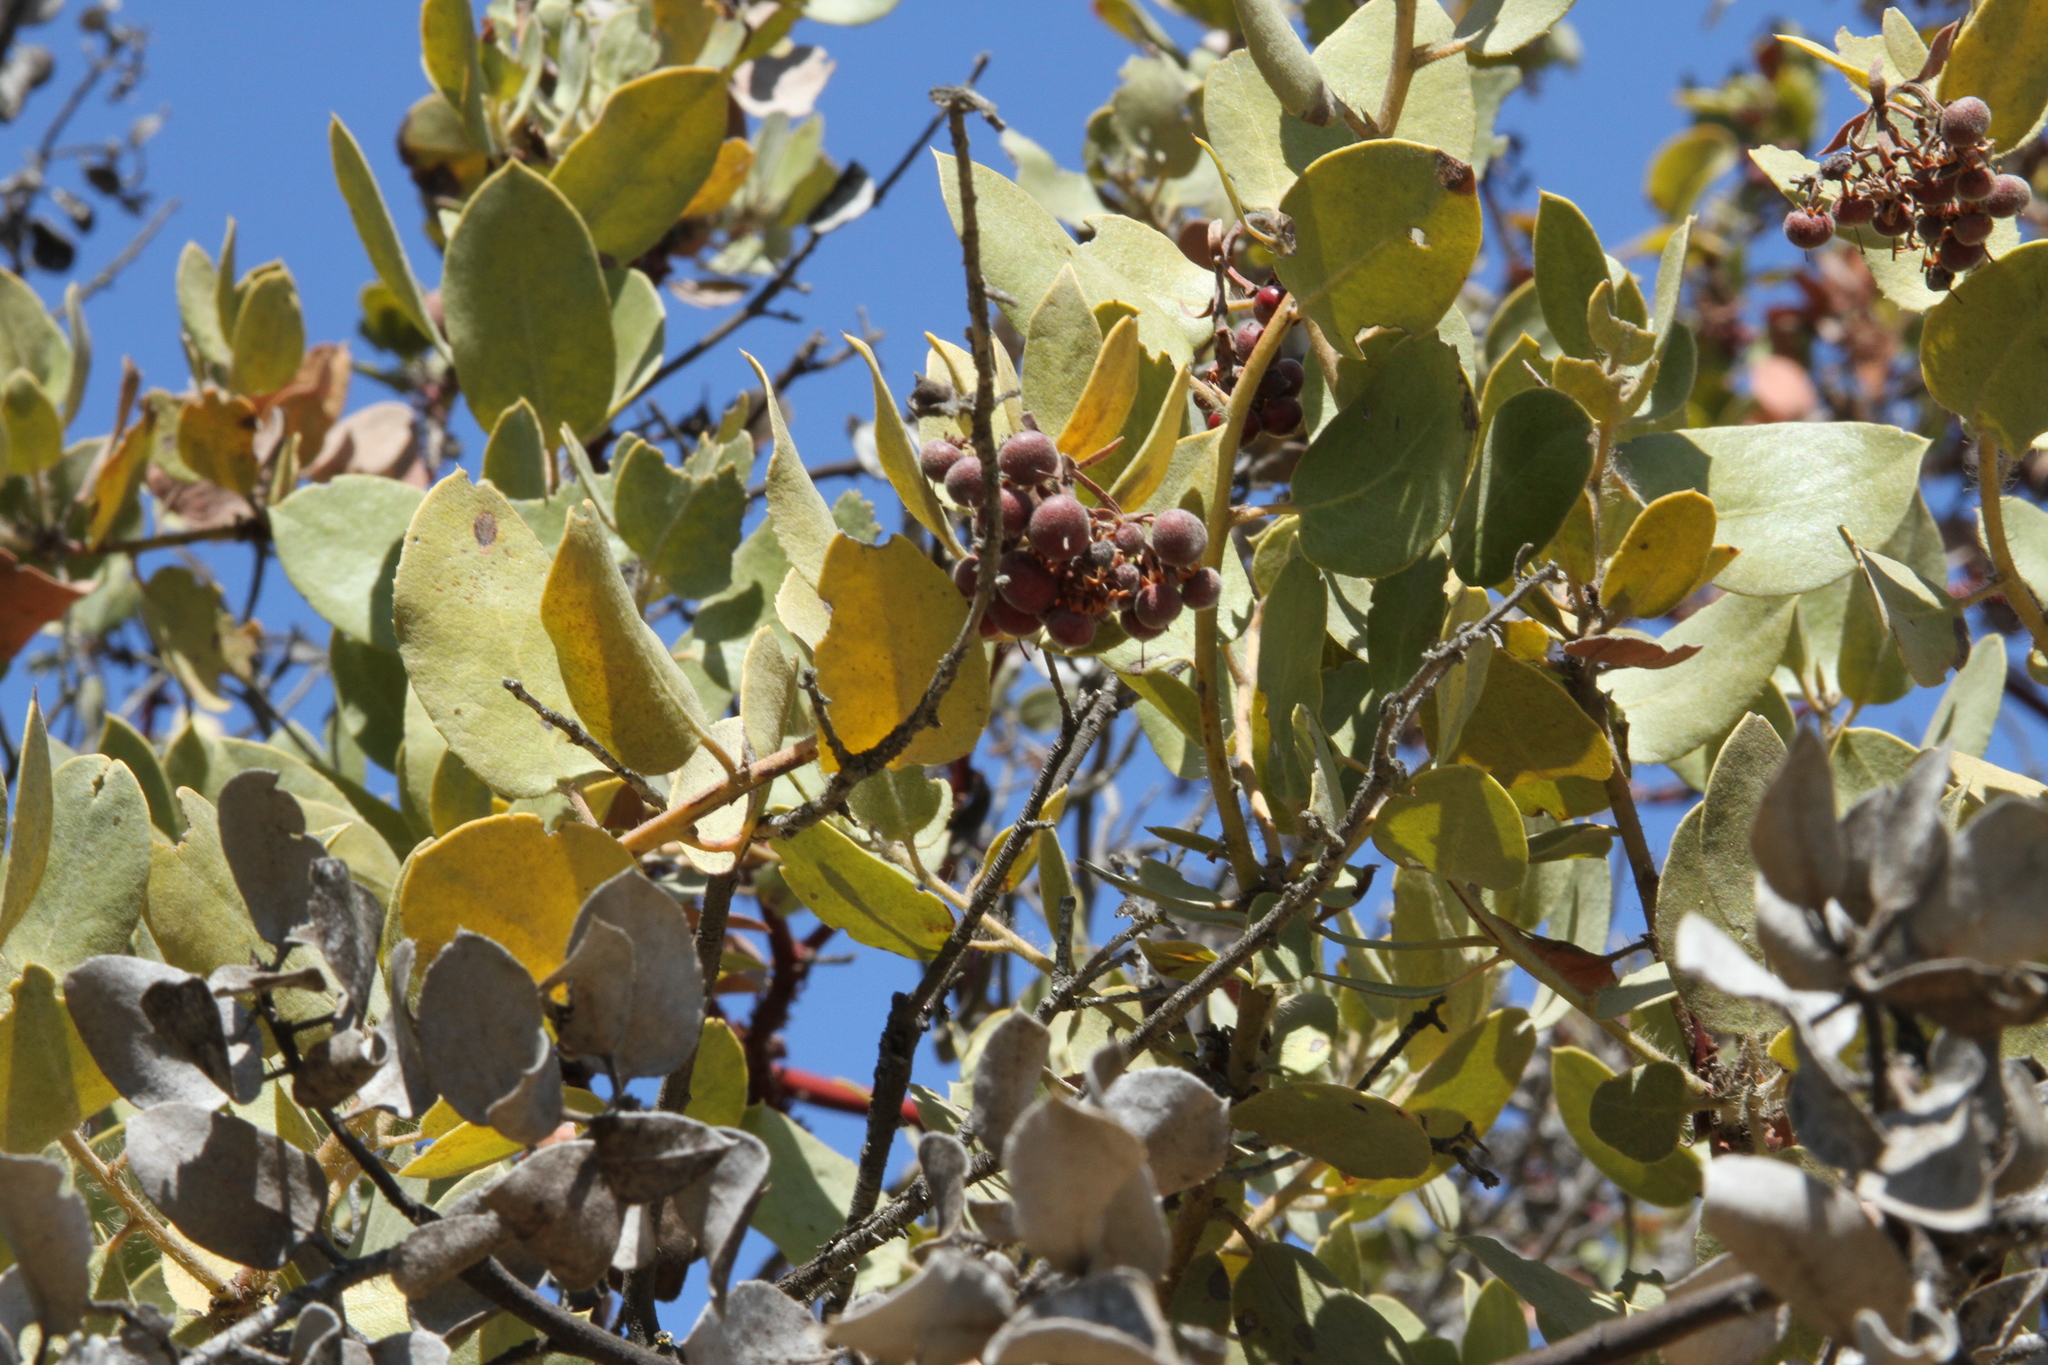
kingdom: Plantae
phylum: Tracheophyta
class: Magnoliopsida
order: Ericales
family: Ericaceae
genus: Arctostaphylos
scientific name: Arctostaphylos crustacea
